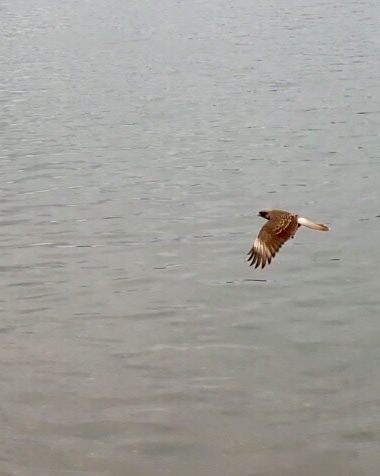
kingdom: Animalia
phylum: Chordata
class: Aves
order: Falconiformes
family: Falconidae
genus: Daptrius
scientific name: Daptrius
